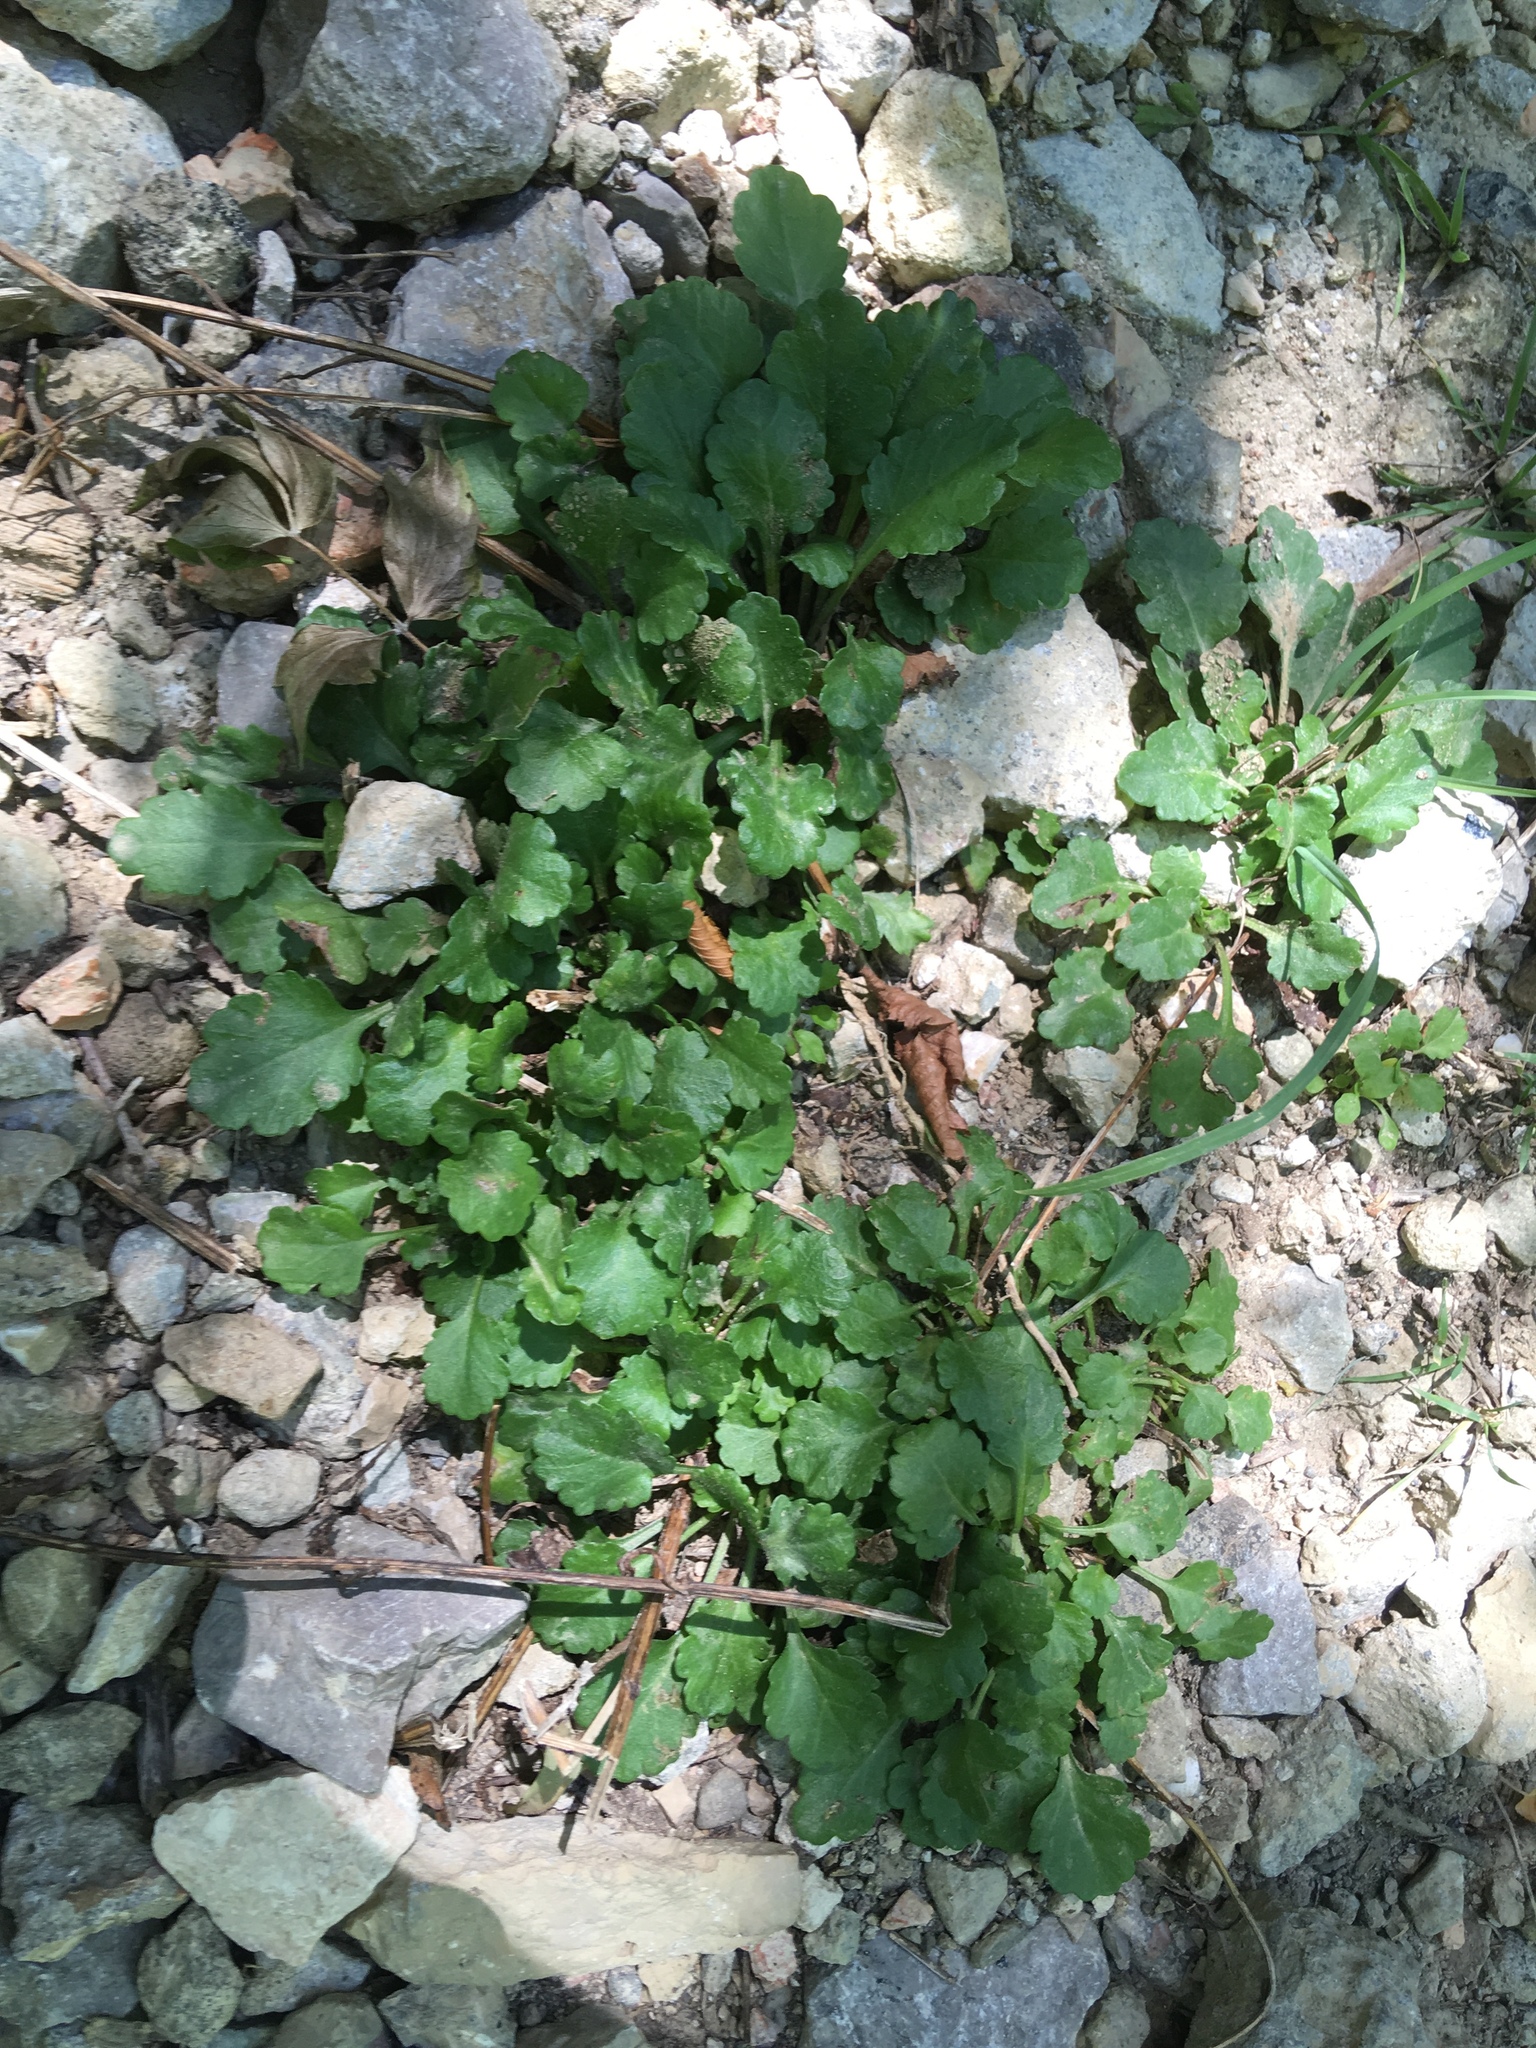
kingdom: Plantae
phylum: Tracheophyta
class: Magnoliopsida
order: Asterales
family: Asteraceae
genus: Leucanthemum
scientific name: Leucanthemum vulgare
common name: Oxeye daisy
